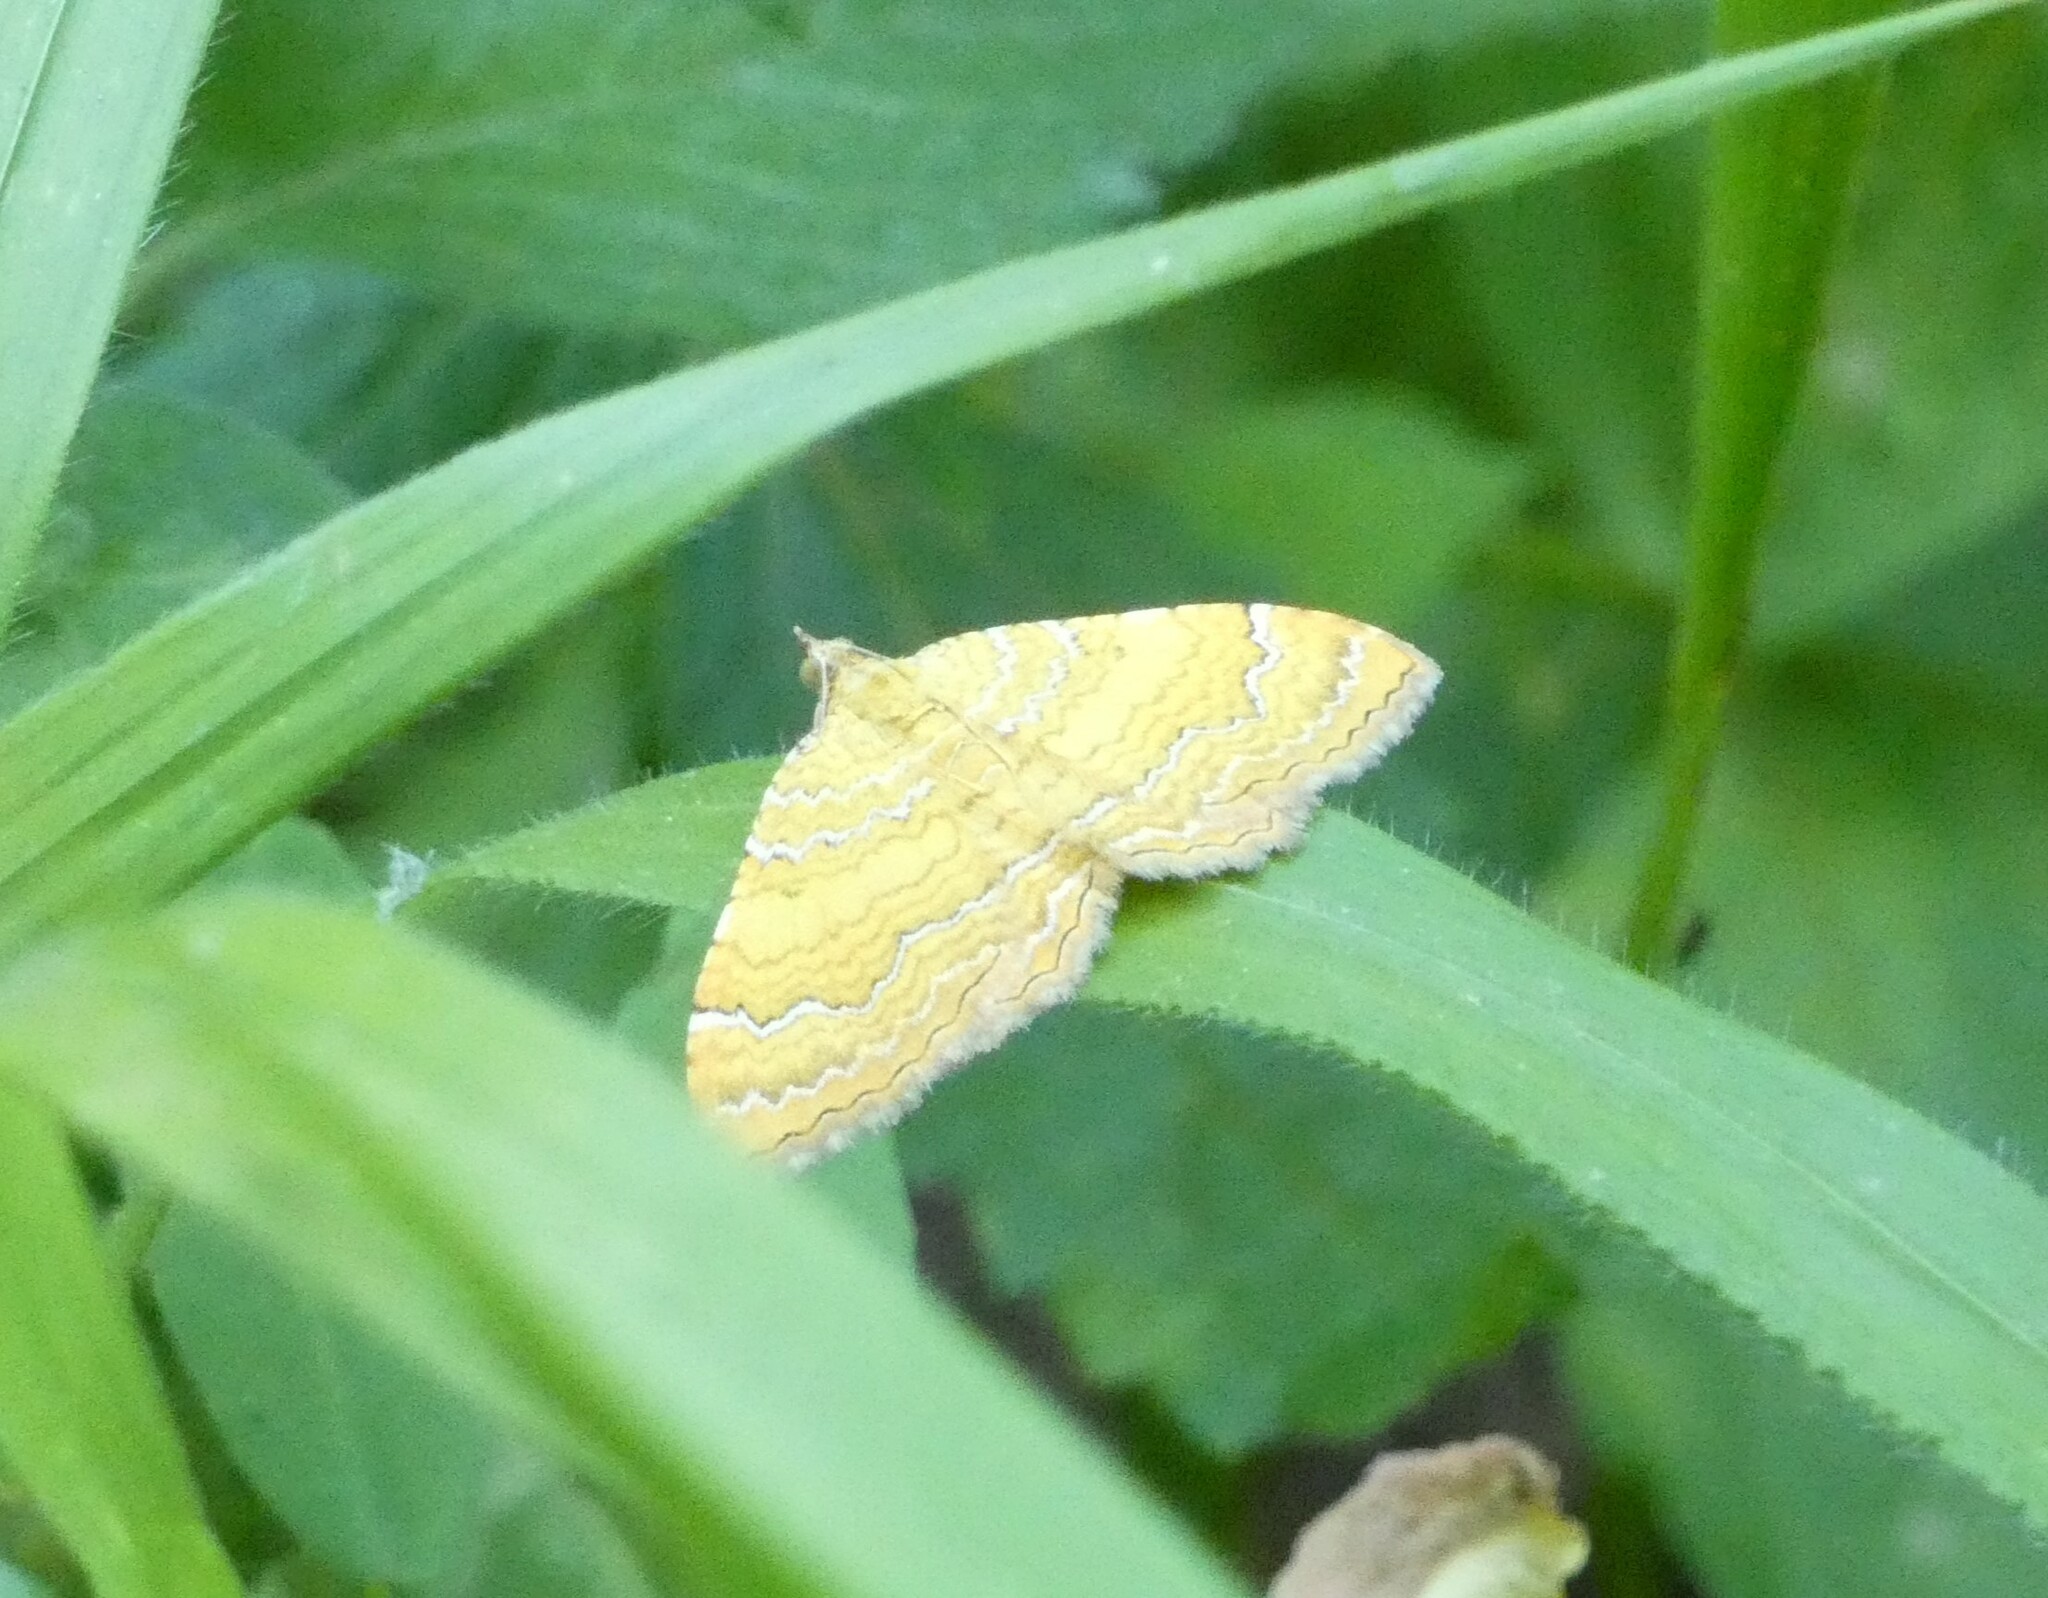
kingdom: Animalia
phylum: Arthropoda
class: Insecta
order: Lepidoptera
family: Geometridae
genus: Camptogramma
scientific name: Camptogramma bilineata
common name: Yellow shell
